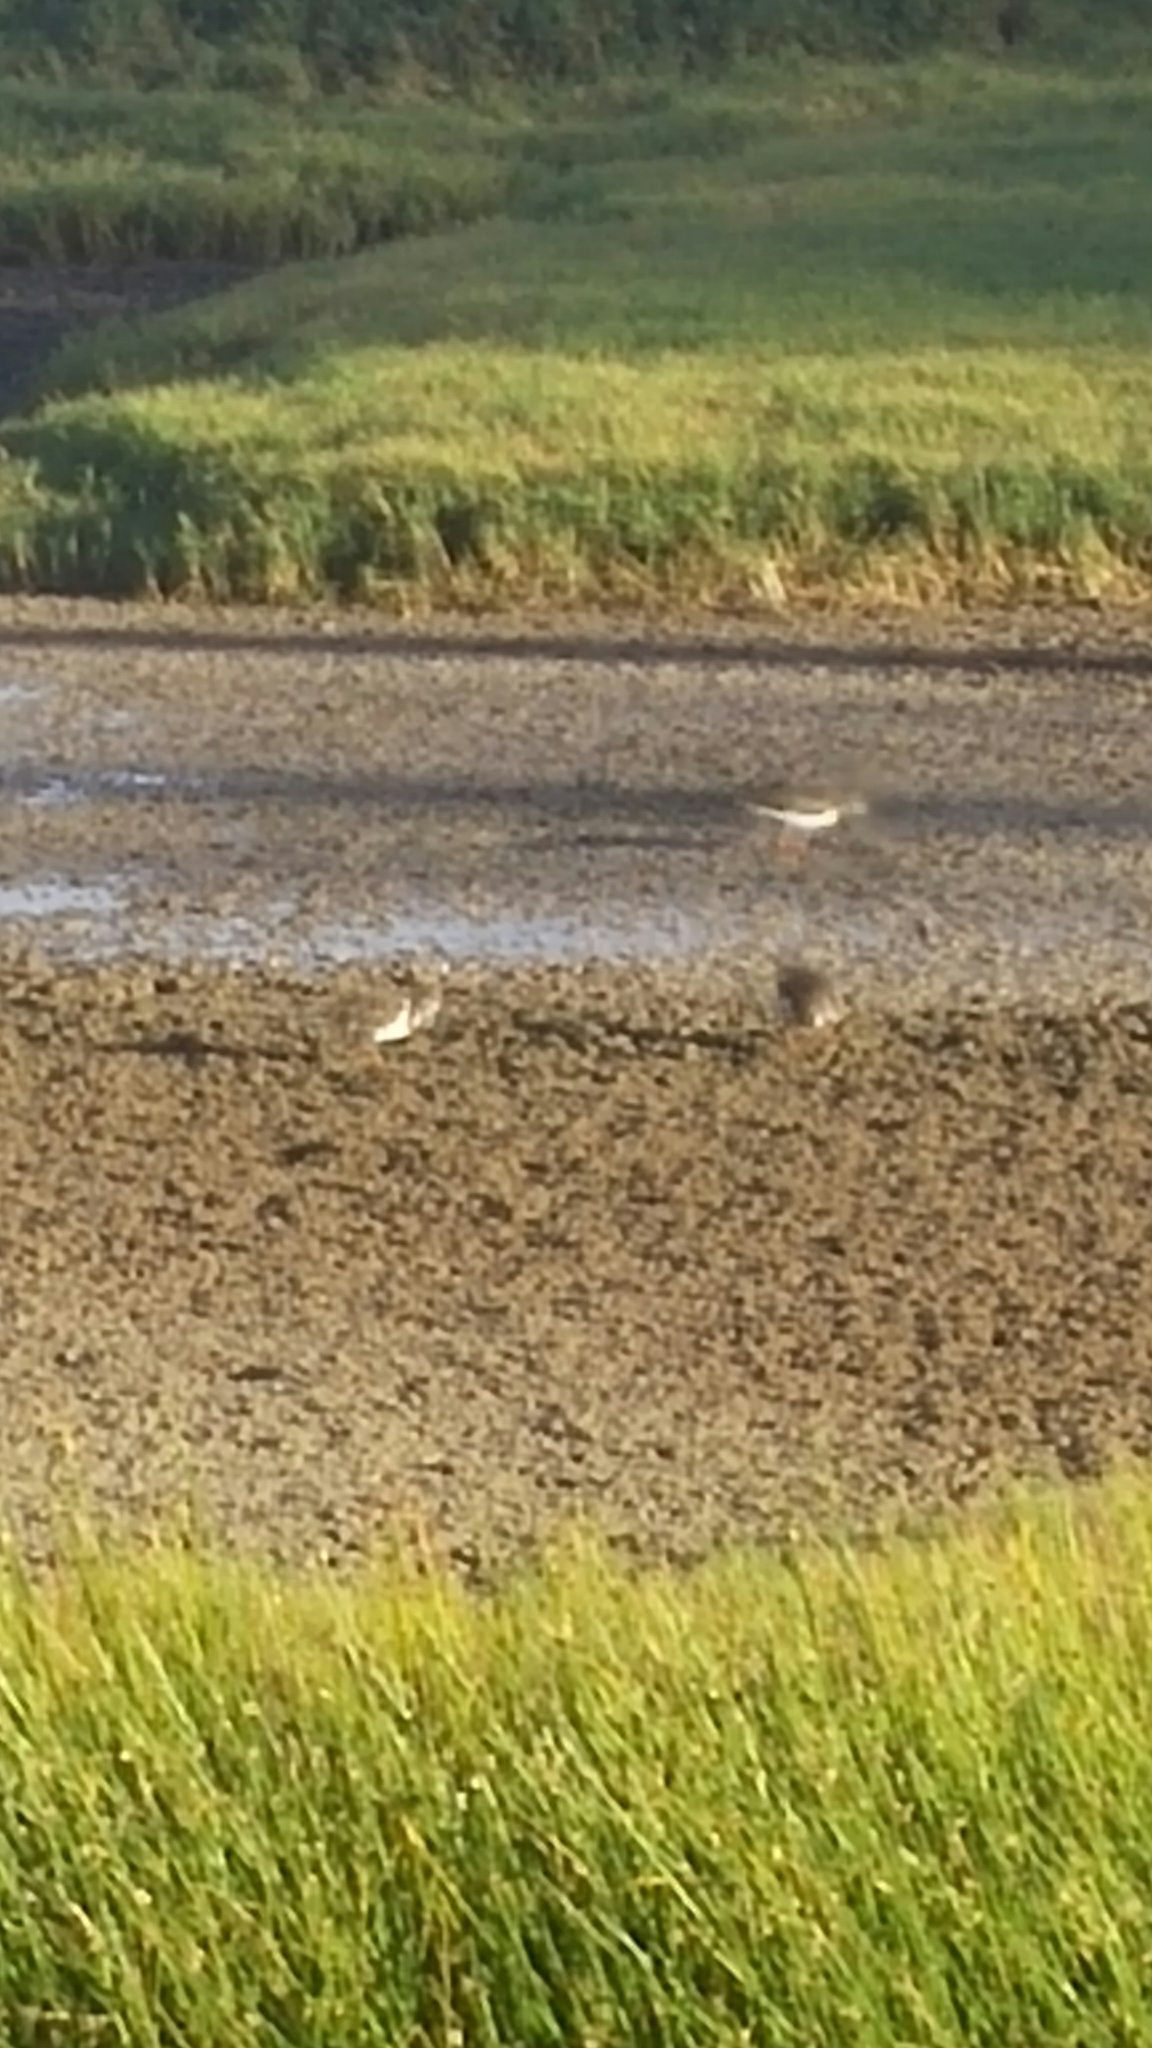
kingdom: Animalia
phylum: Chordata
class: Aves
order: Charadriiformes
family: Scolopacidae
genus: Arenaria
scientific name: Arenaria interpres
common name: Ruddy turnstone
